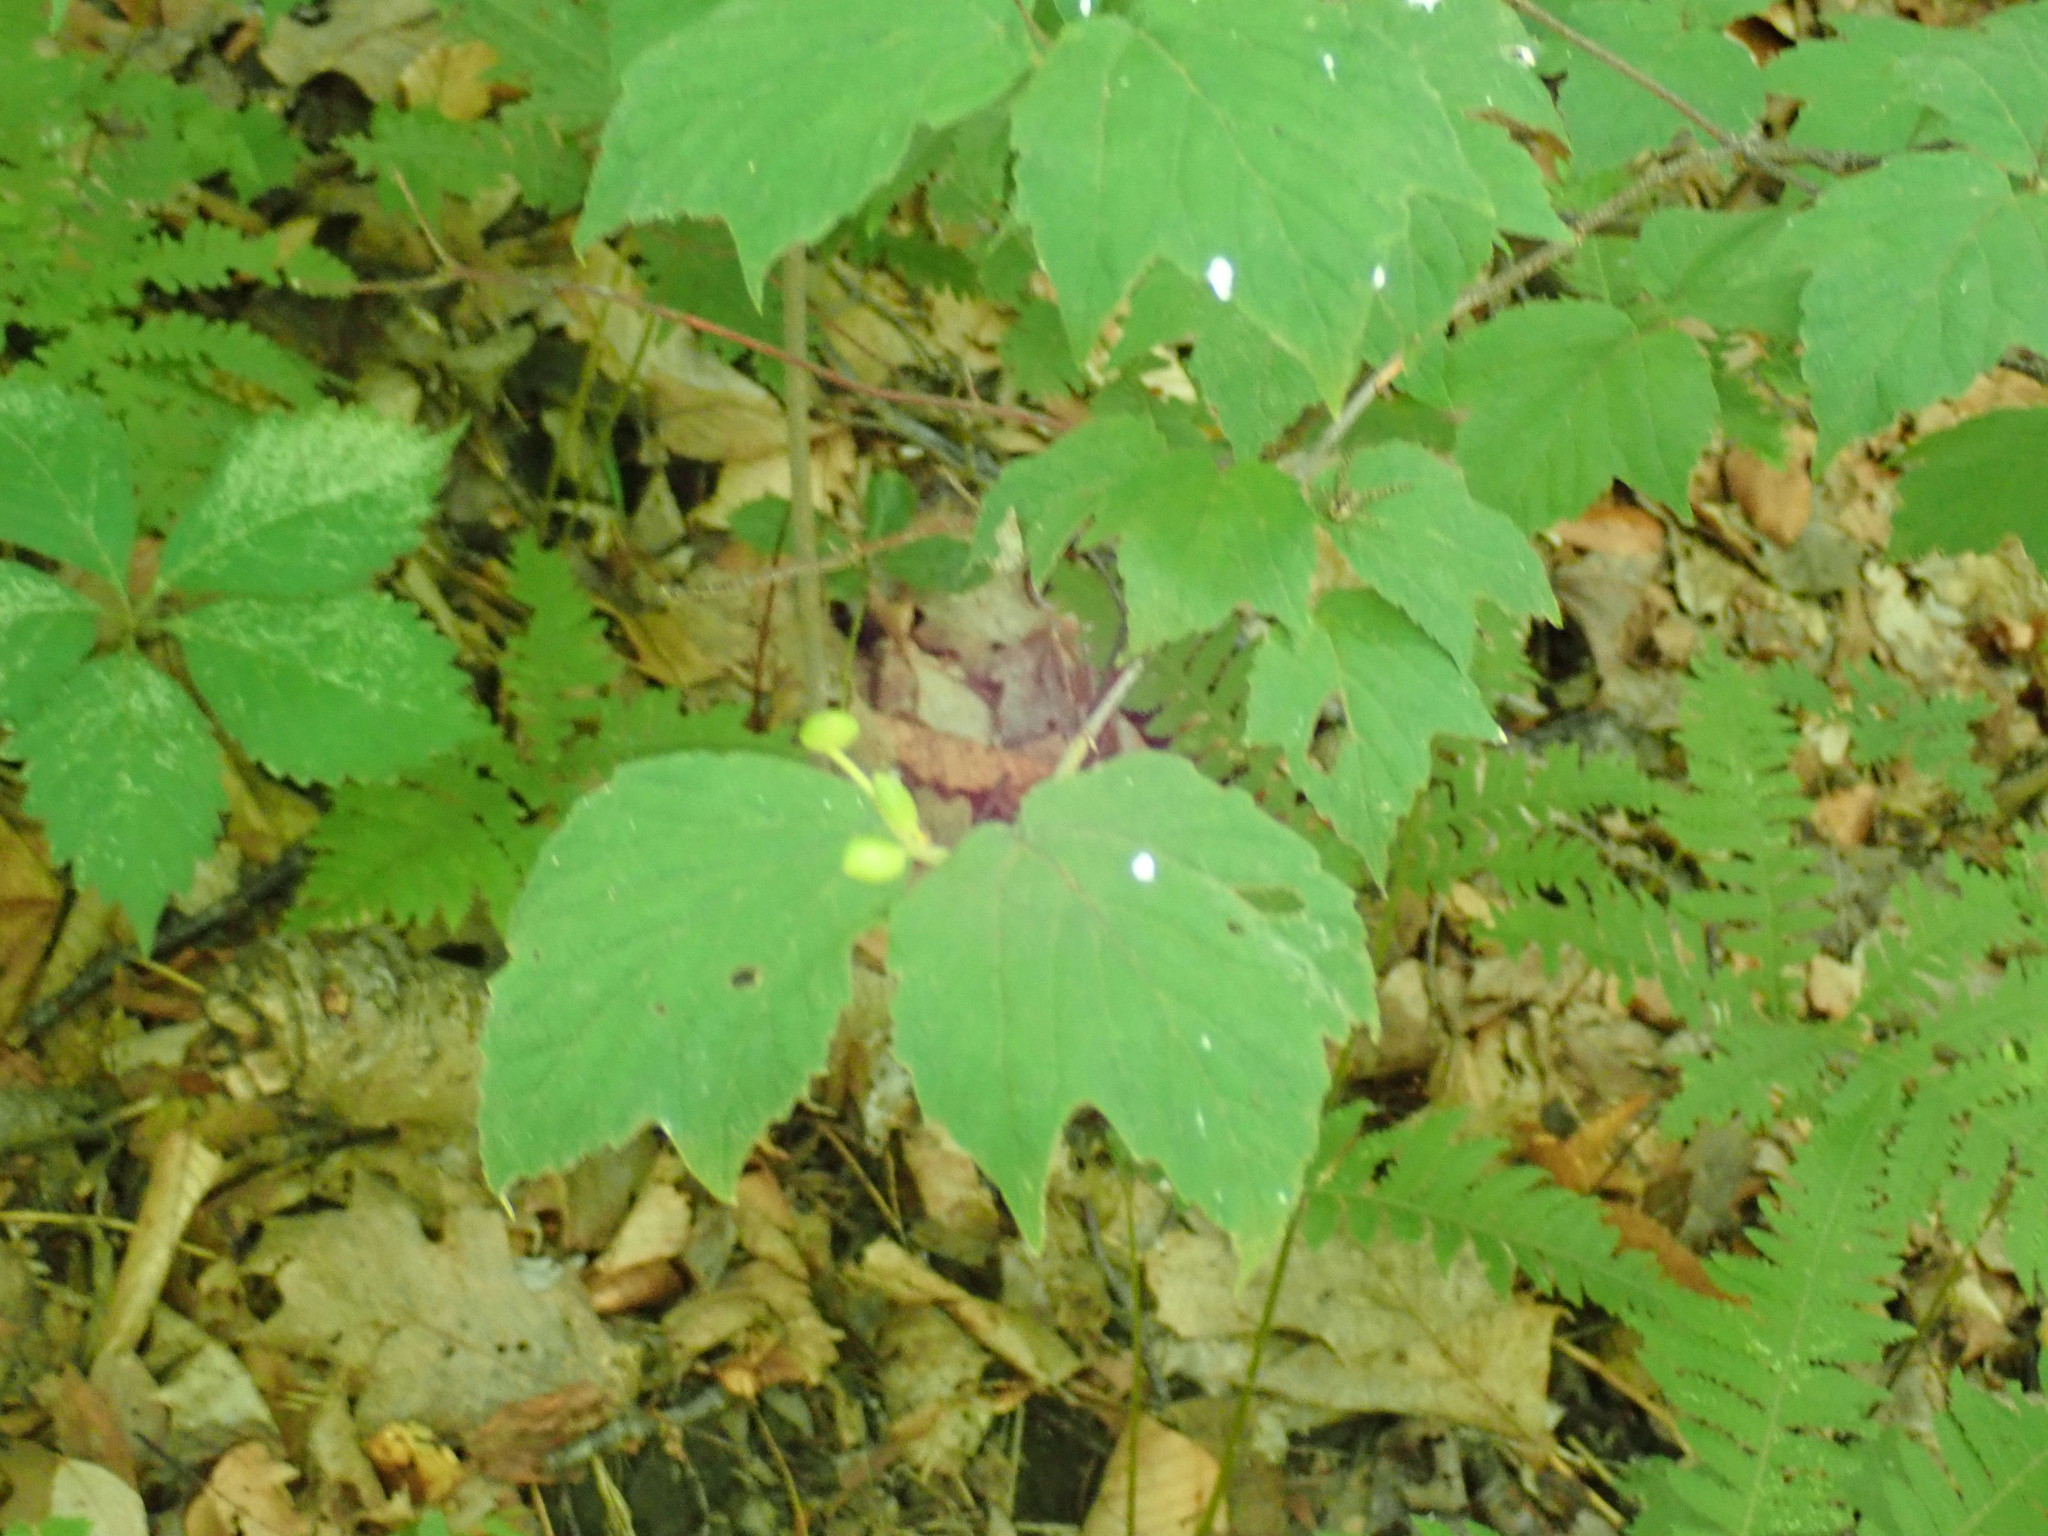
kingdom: Plantae
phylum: Tracheophyta
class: Magnoliopsida
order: Dipsacales
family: Viburnaceae
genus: Viburnum
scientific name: Viburnum acerifolium
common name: Dockmackie
